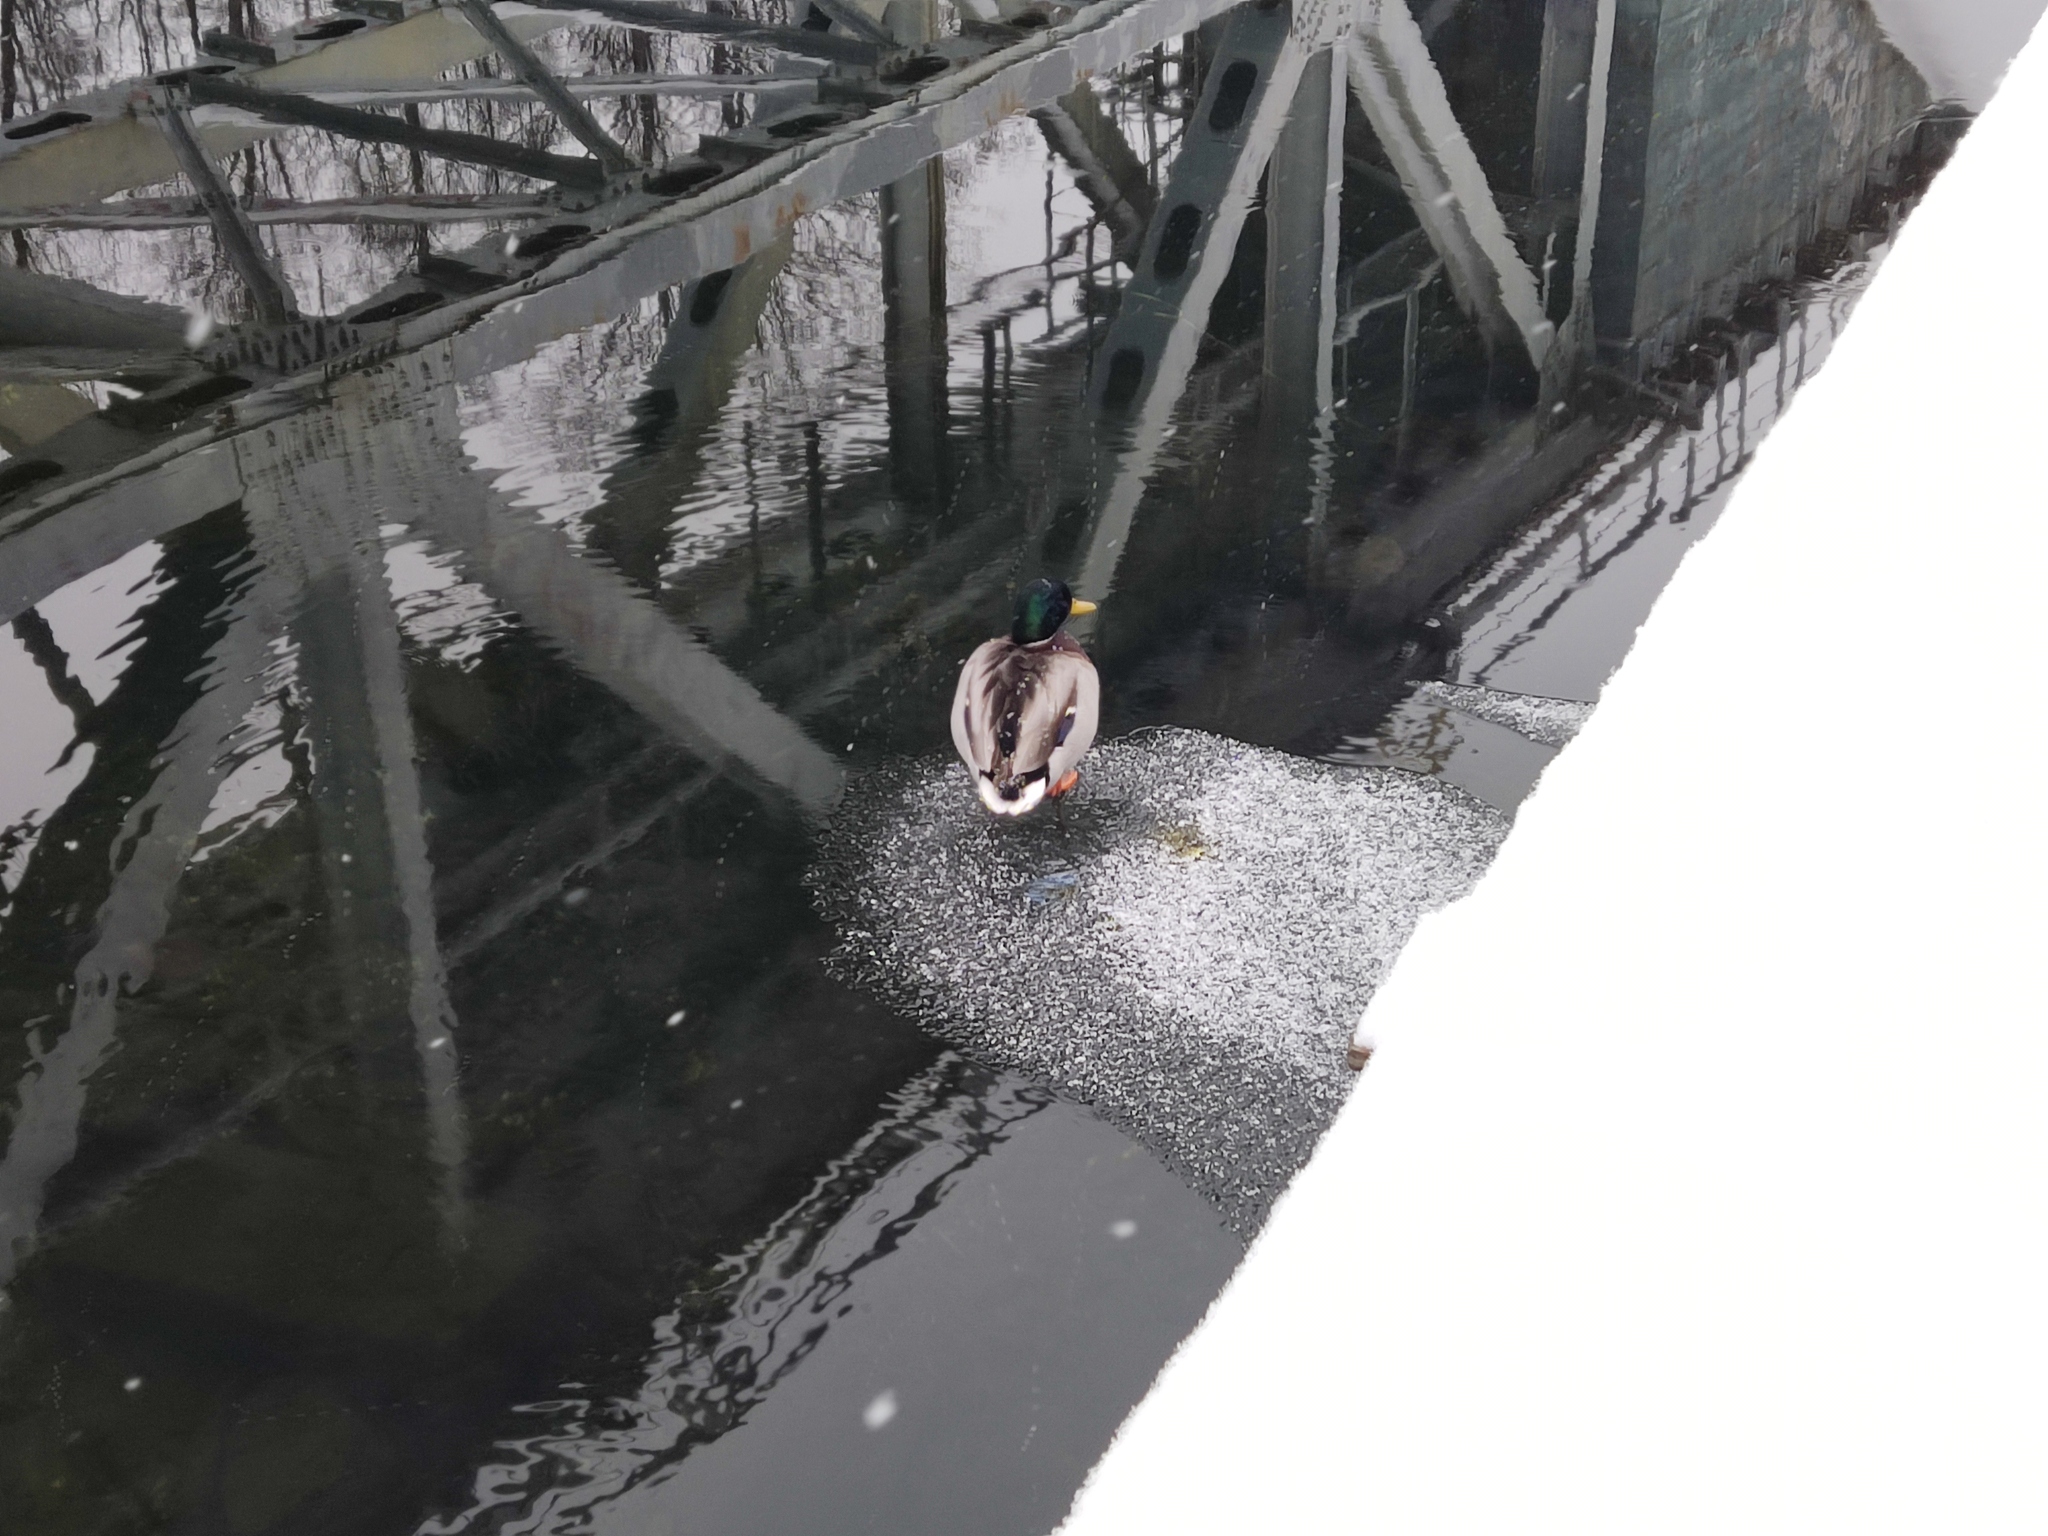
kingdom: Animalia
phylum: Chordata
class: Aves
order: Anseriformes
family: Anatidae
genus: Anas
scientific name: Anas platyrhynchos
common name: Mallard
